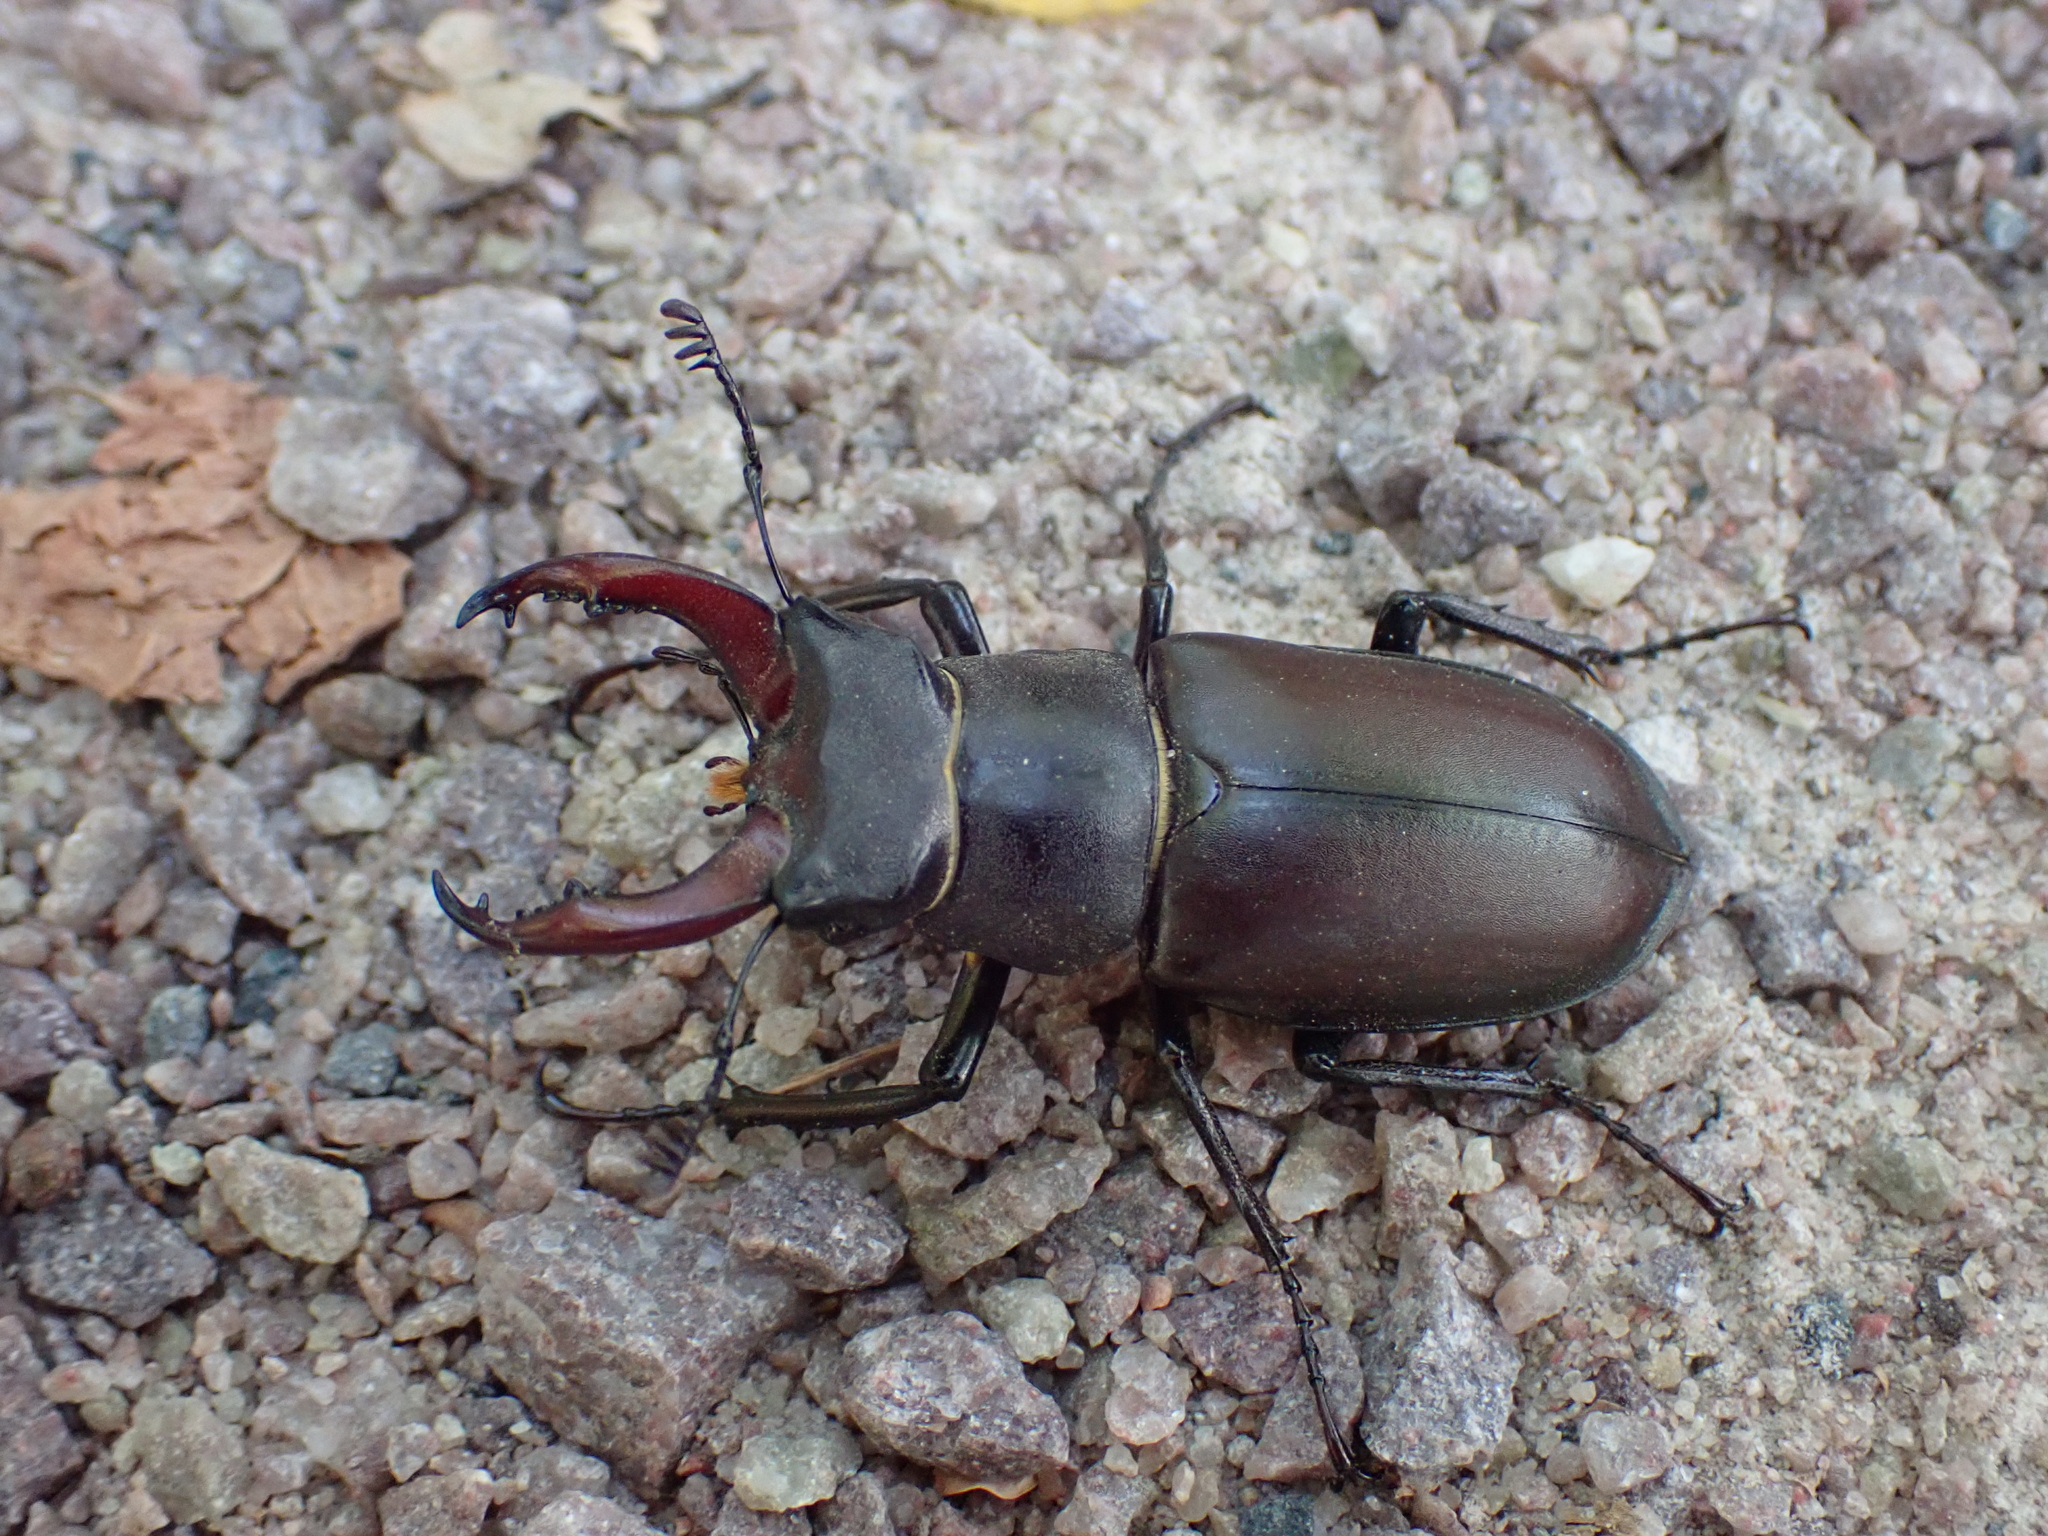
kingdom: Animalia
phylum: Arthropoda
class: Insecta
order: Coleoptera
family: Lucanidae
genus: Lucanus
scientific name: Lucanus cervus
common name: Stag beetle
